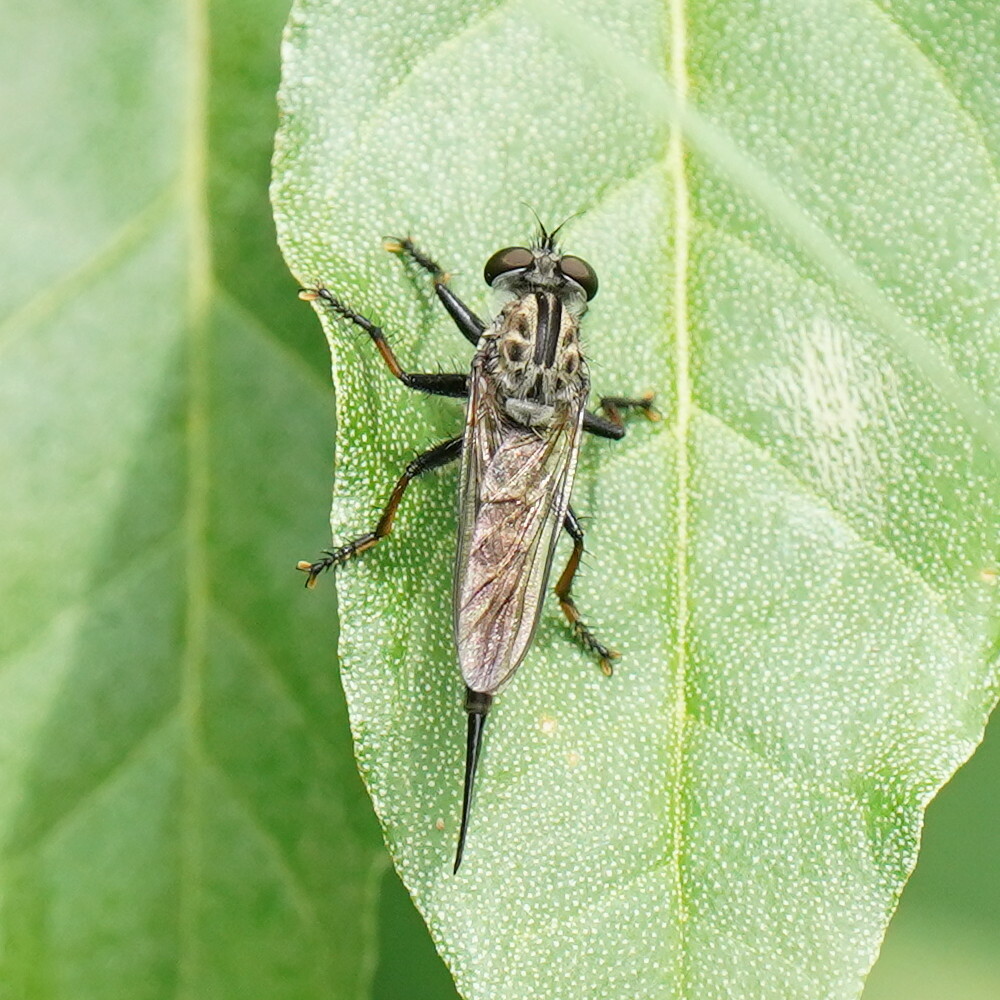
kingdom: Animalia
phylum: Arthropoda
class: Insecta
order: Diptera
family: Asilidae
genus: Efferia
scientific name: Efferia aestuans
